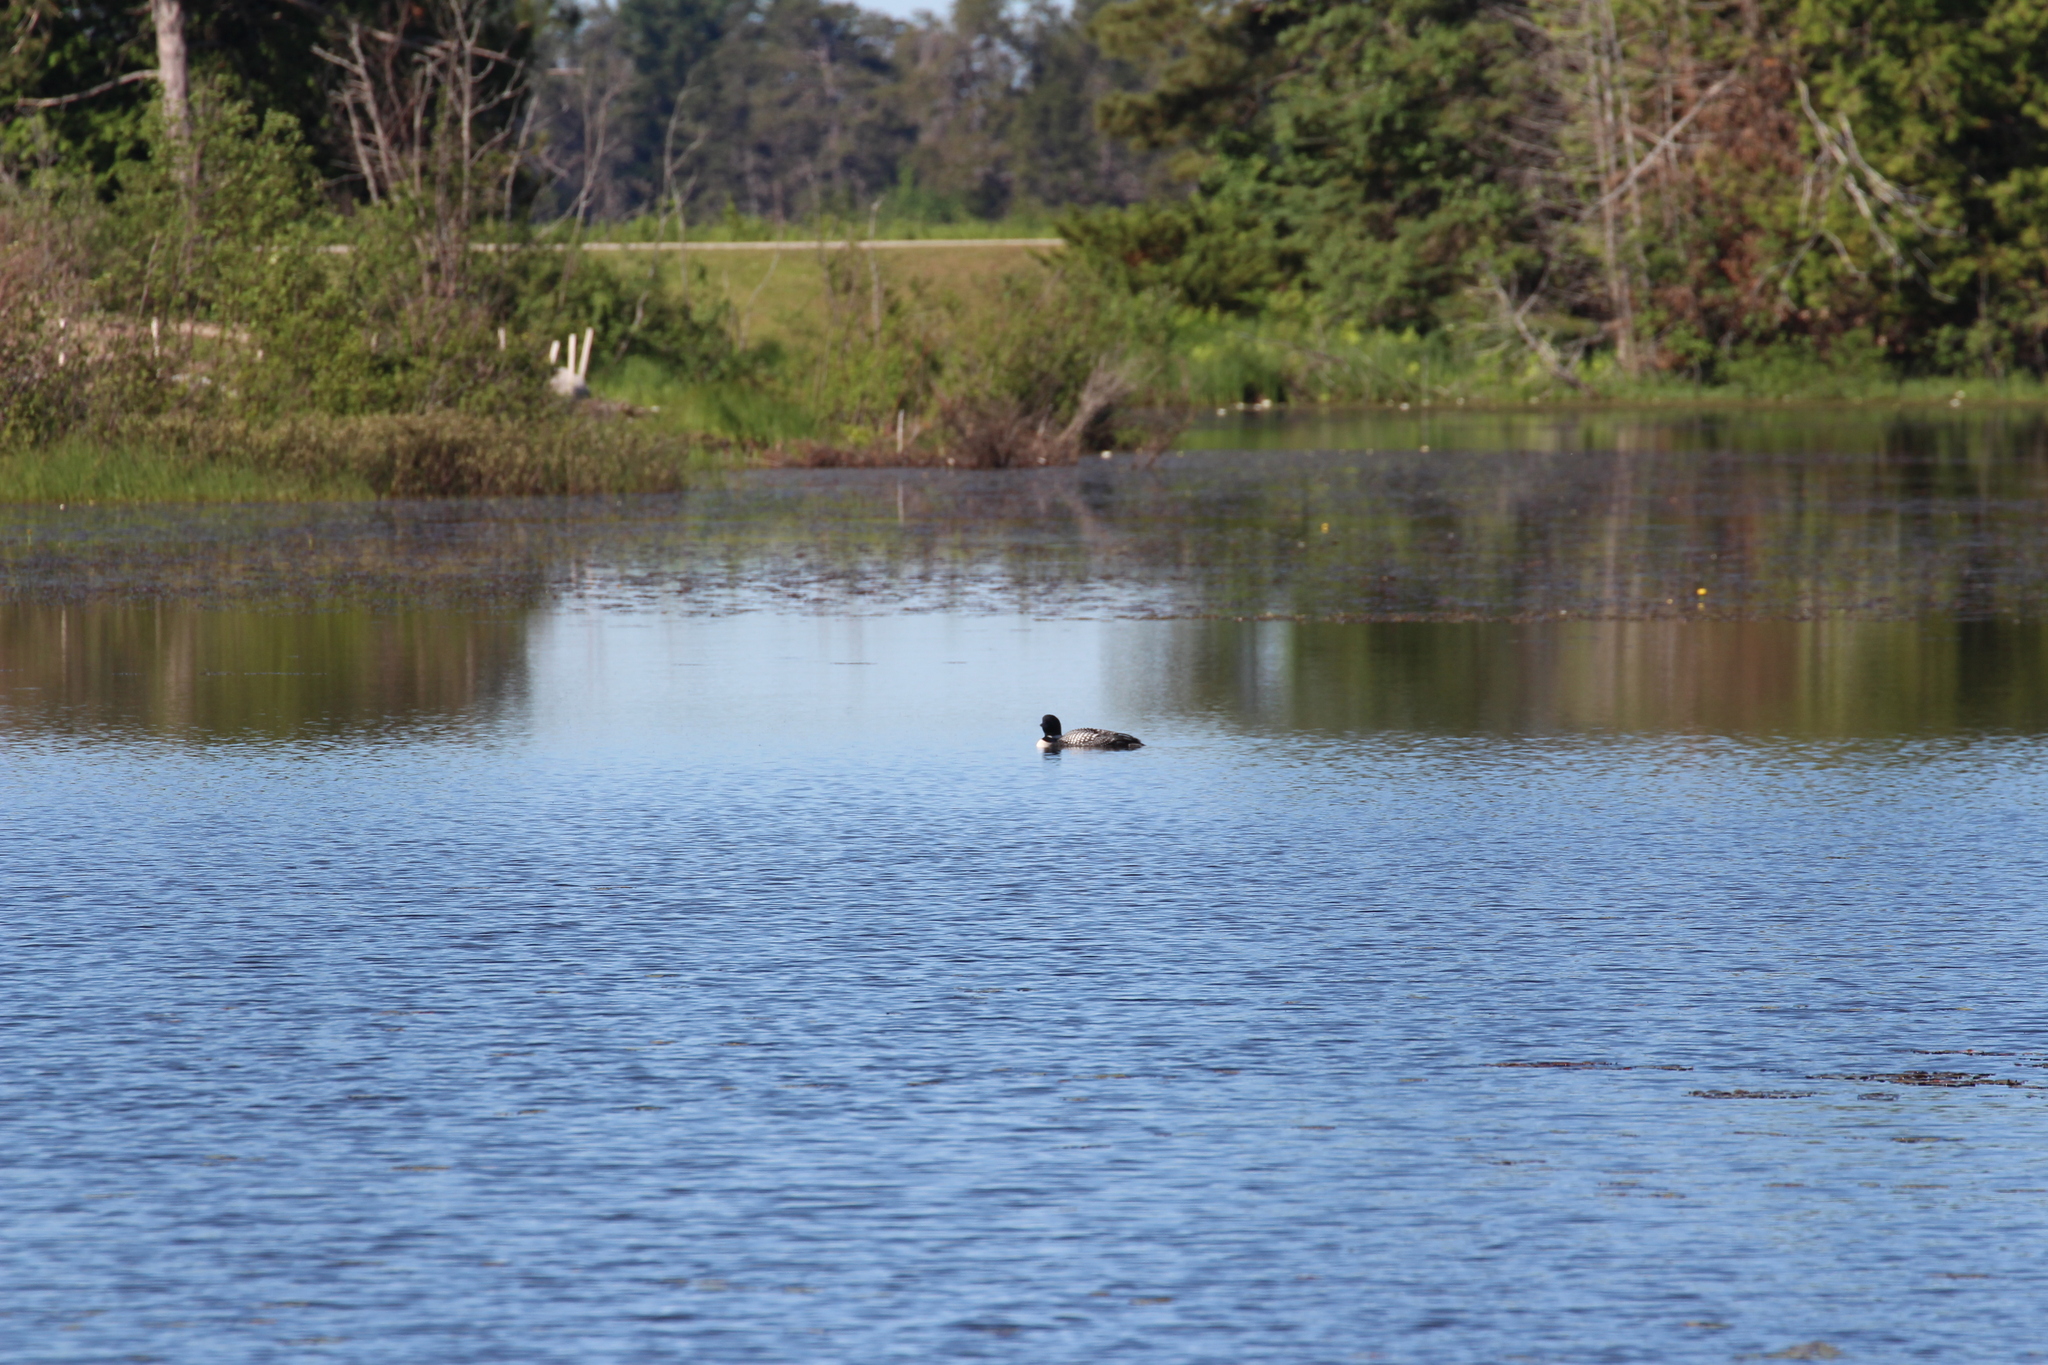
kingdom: Animalia
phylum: Chordata
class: Aves
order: Gaviiformes
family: Gaviidae
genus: Gavia
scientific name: Gavia immer
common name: Common loon
